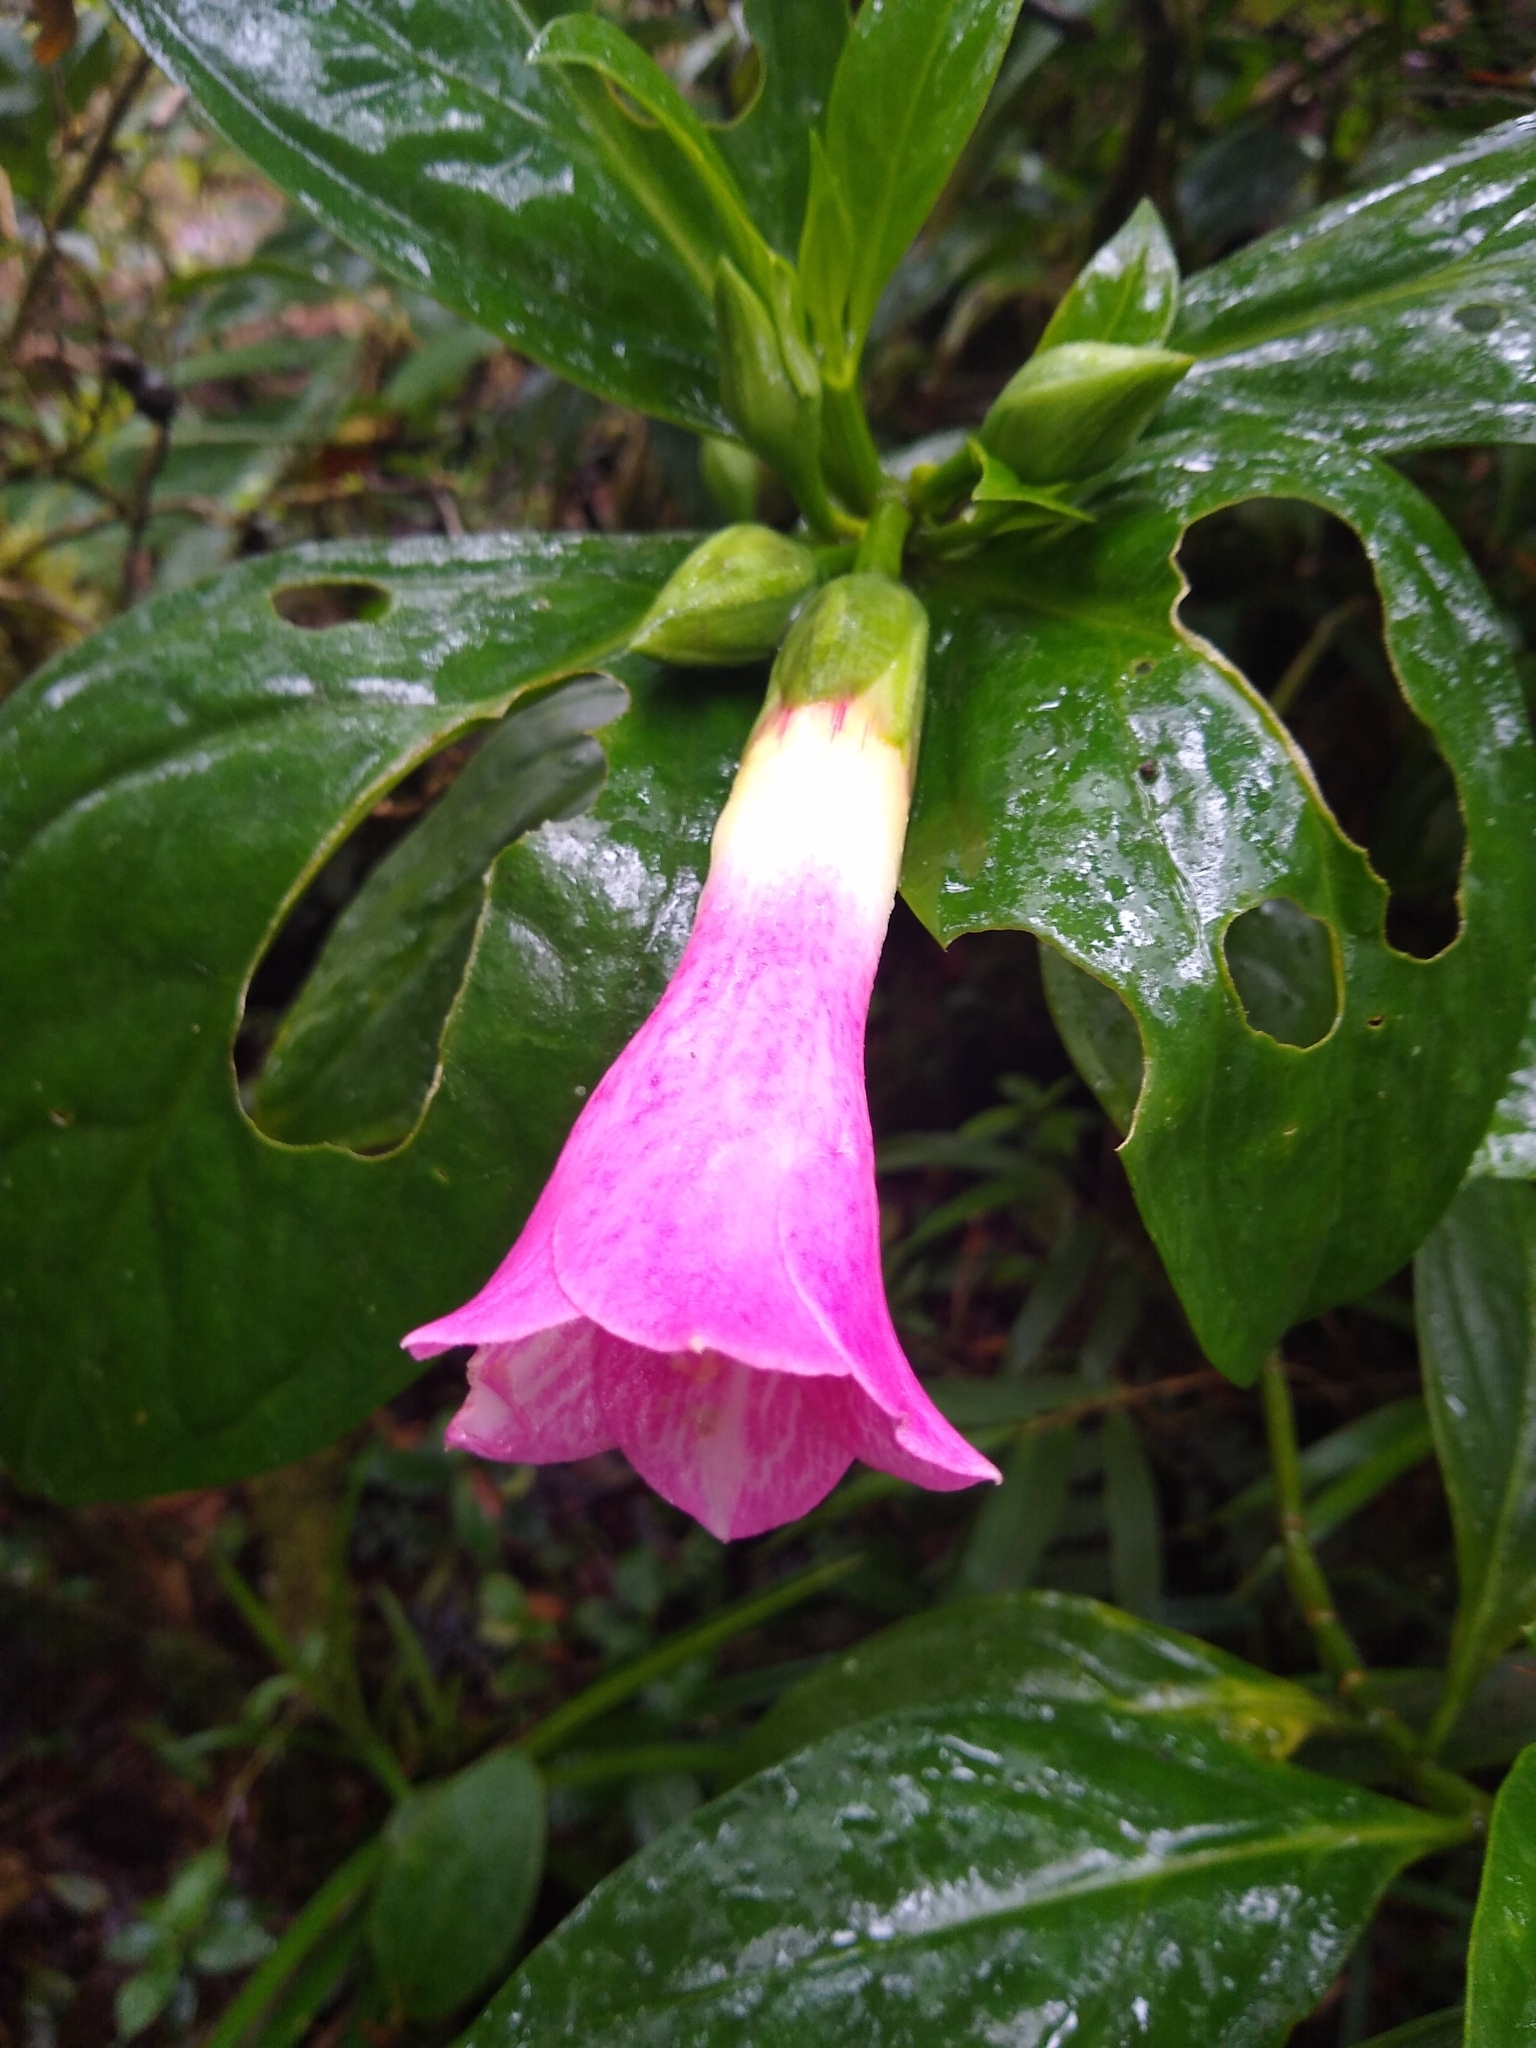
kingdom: Plantae
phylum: Tracheophyta
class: Magnoliopsida
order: Gentianales
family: Gentianaceae
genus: Symbolanthus
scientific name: Symbolanthus pulcherrimus
